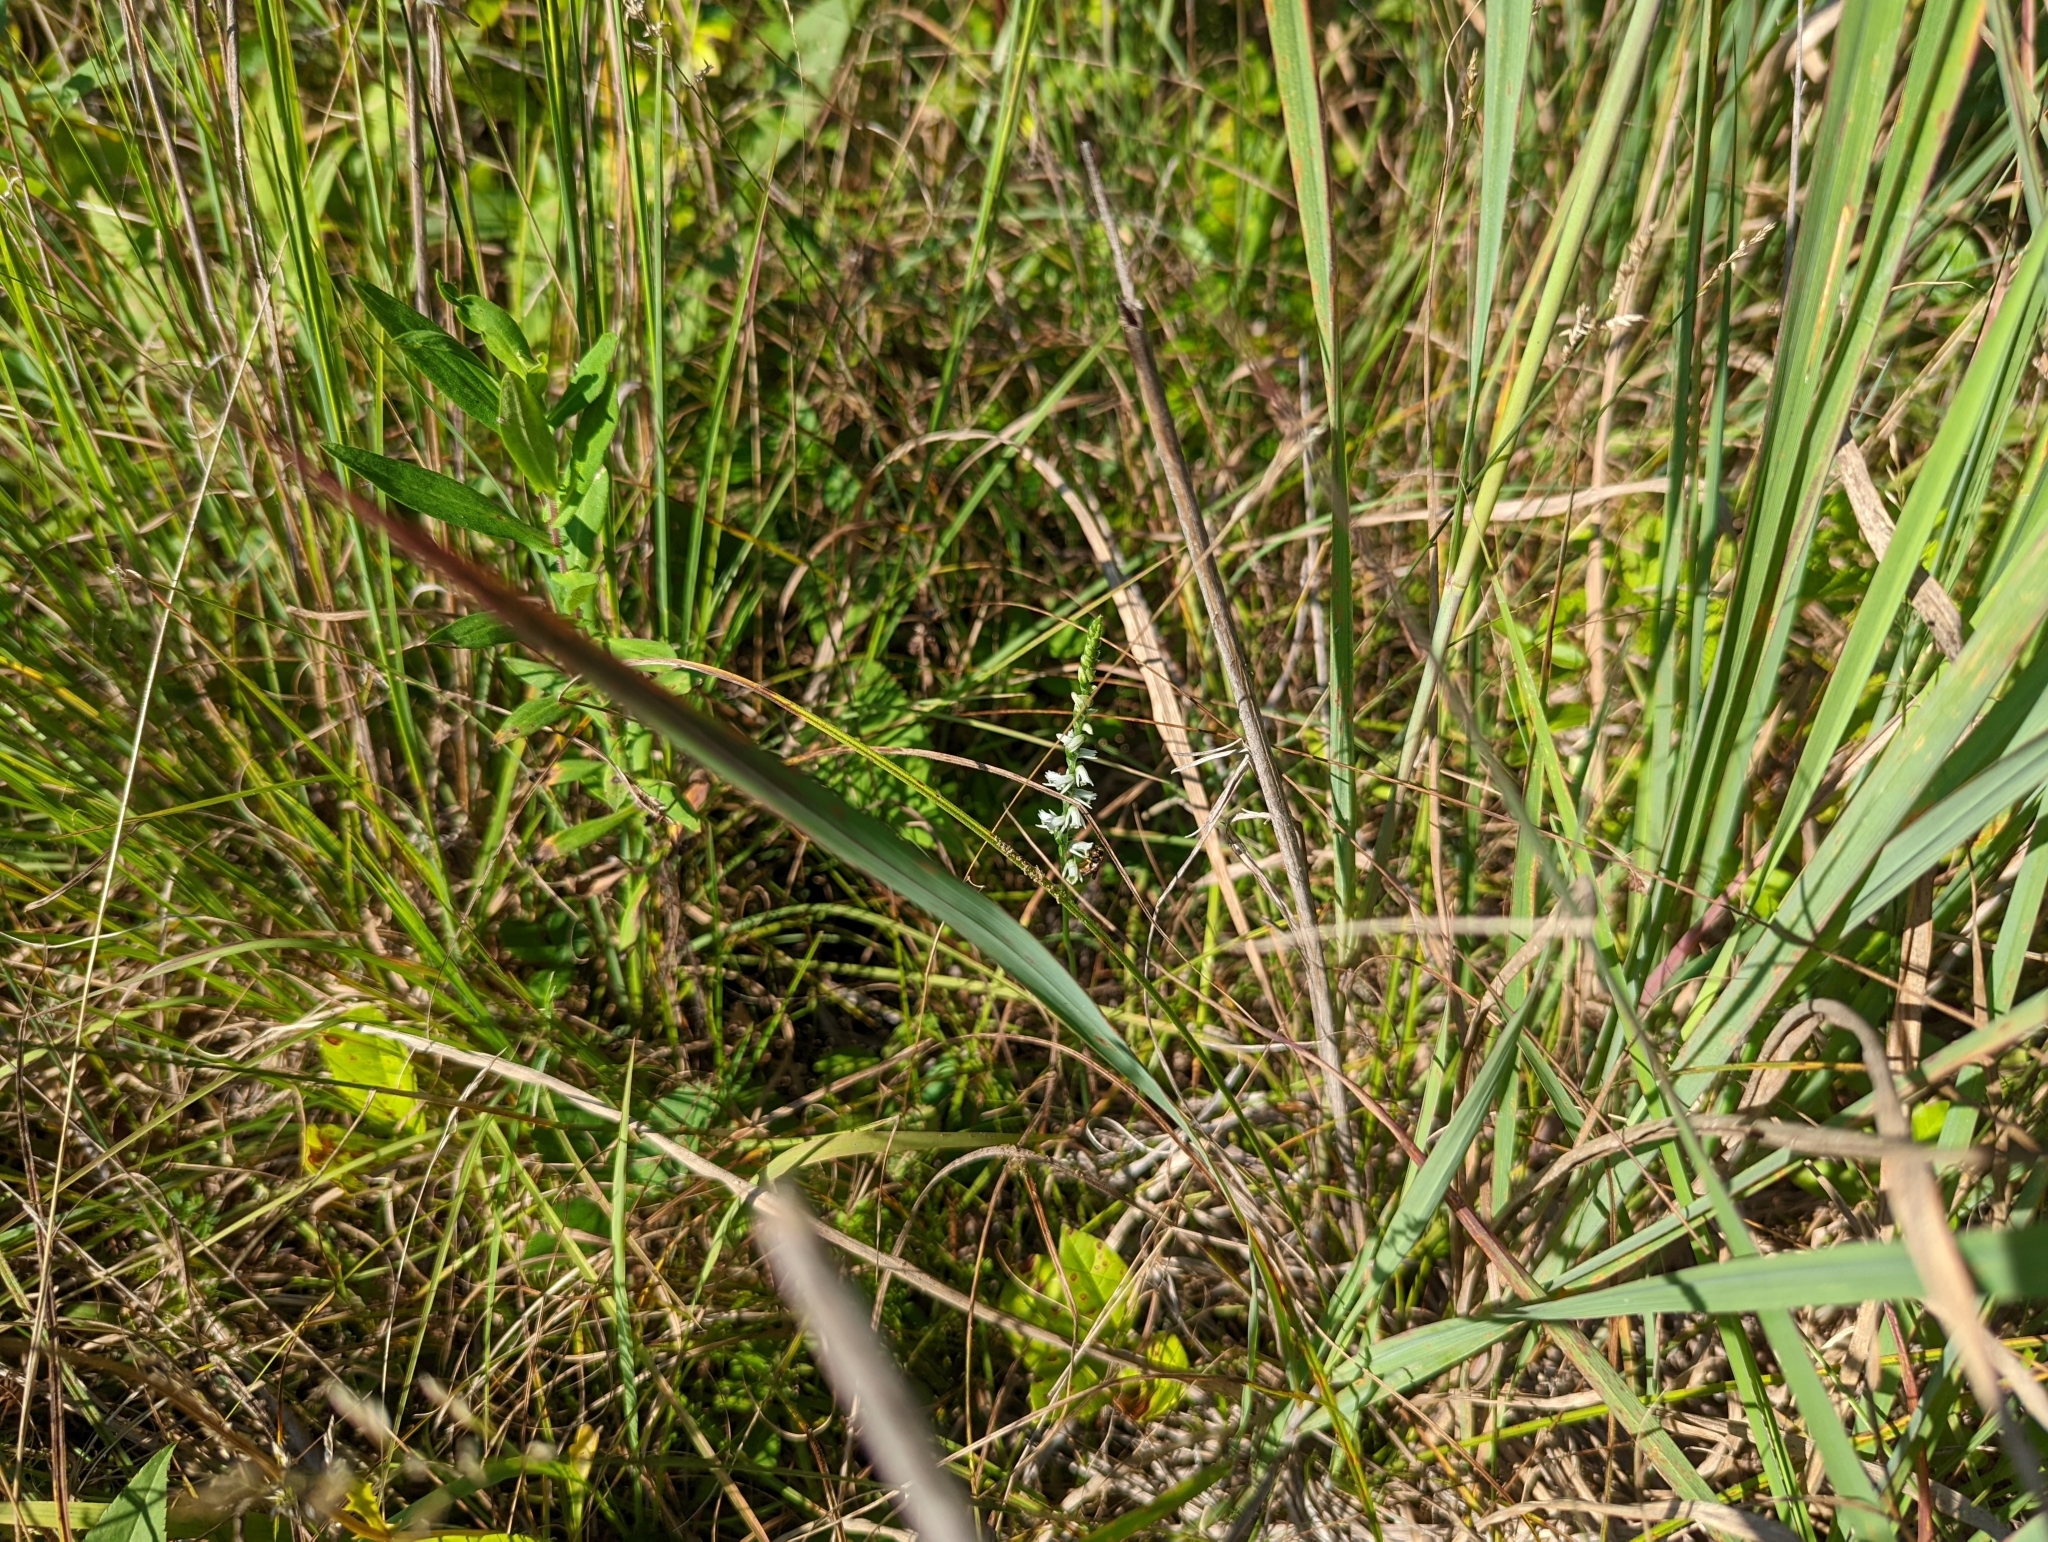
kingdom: Plantae
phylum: Tracheophyta
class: Liliopsida
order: Asparagales
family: Orchidaceae
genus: Spiranthes
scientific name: Spiranthes lacera
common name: Northern slender ladies'-tresses
